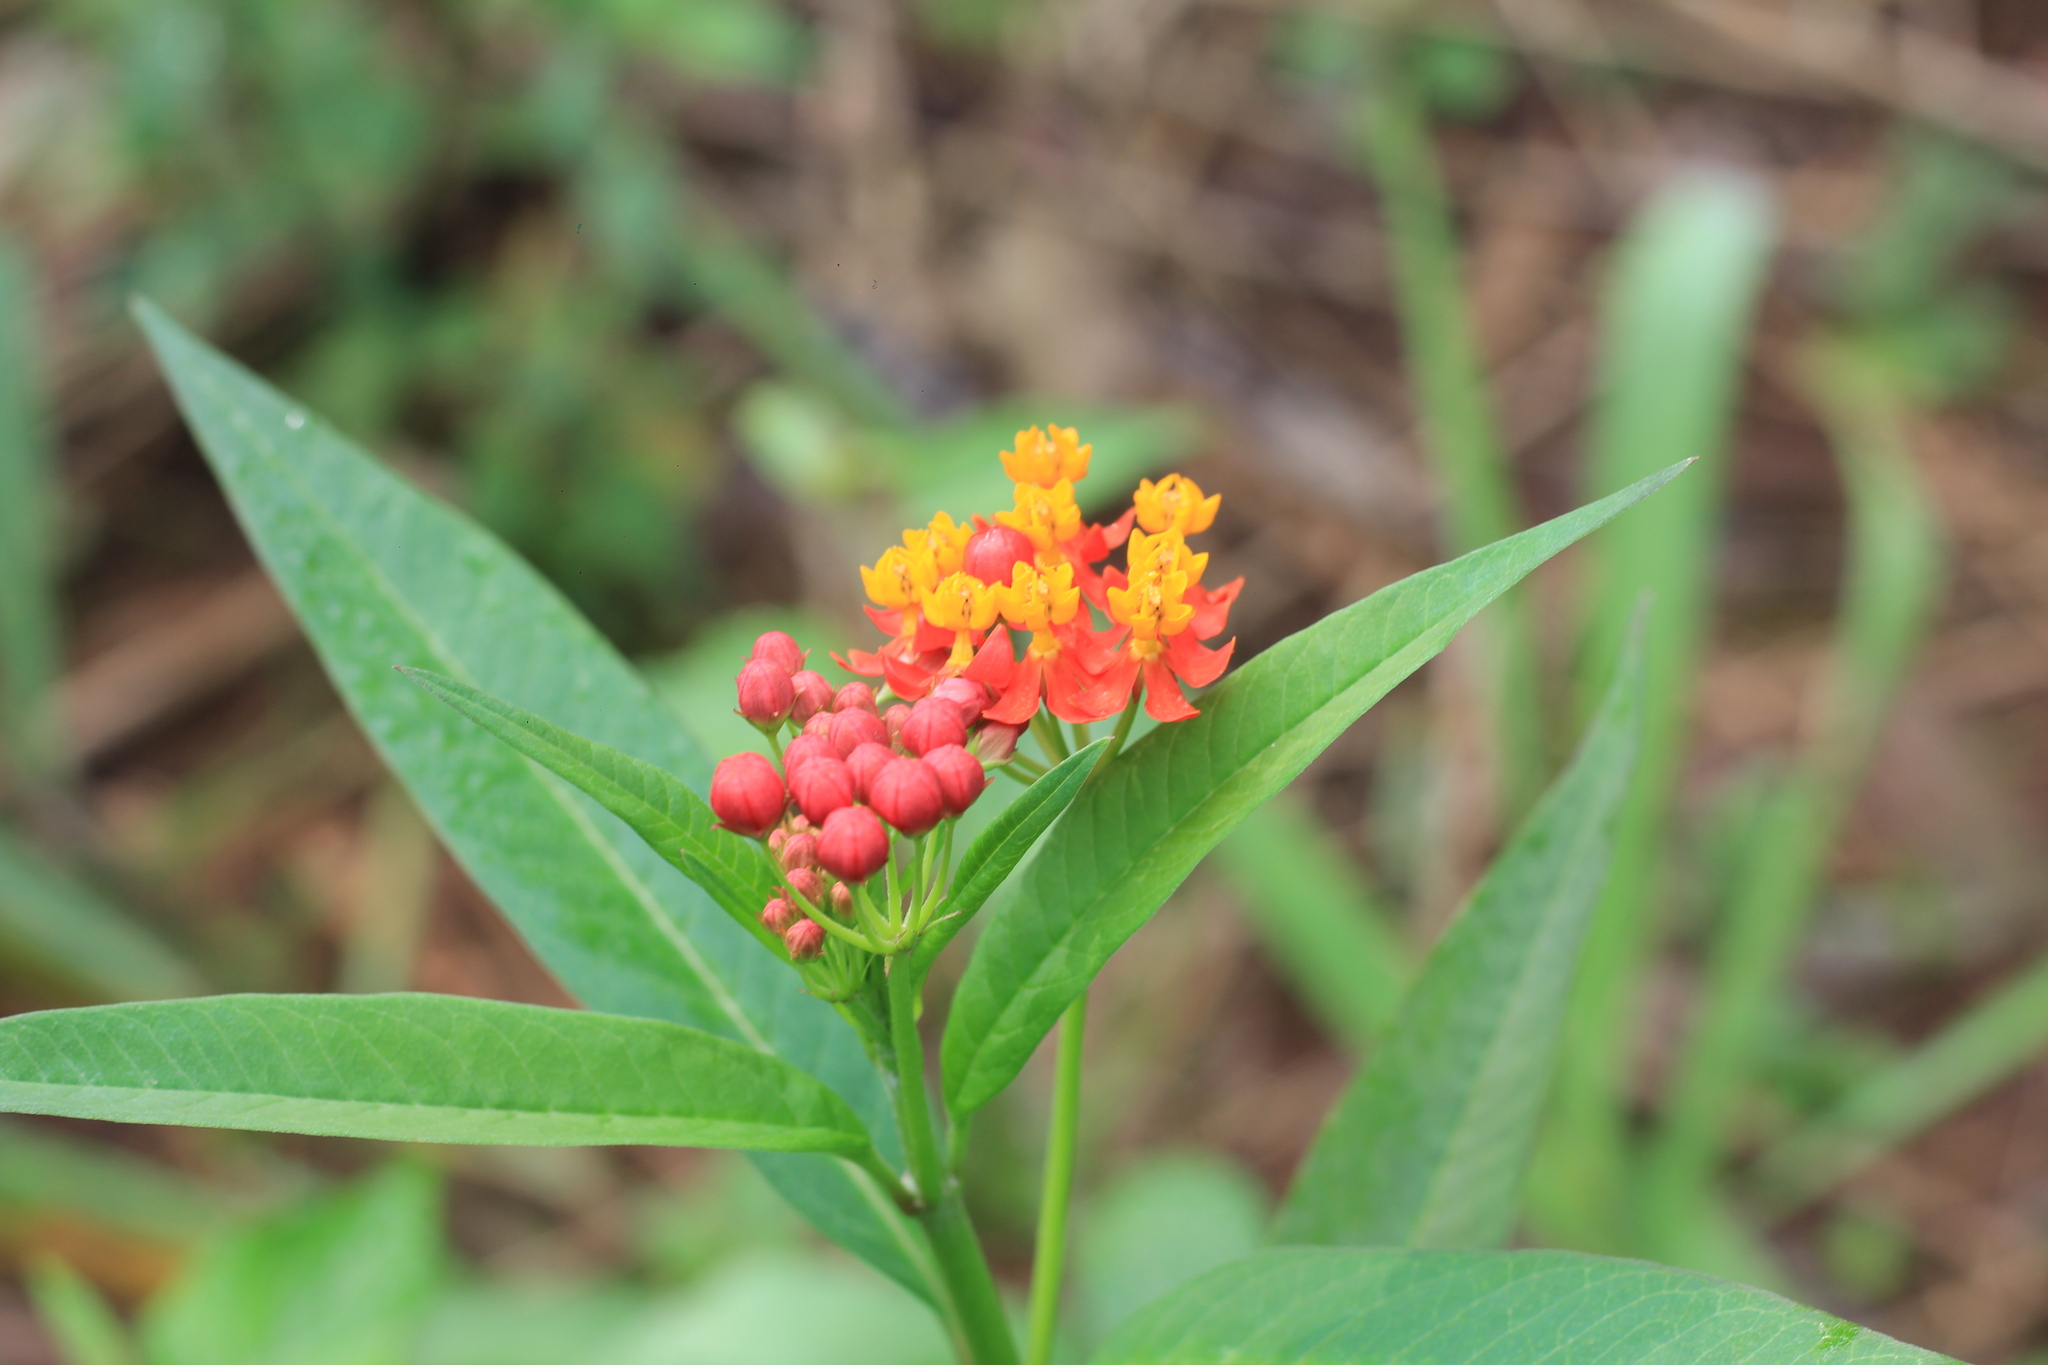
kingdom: Plantae
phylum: Tracheophyta
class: Magnoliopsida
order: Gentianales
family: Apocynaceae
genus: Asclepias
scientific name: Asclepias curassavica
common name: Bloodflower
